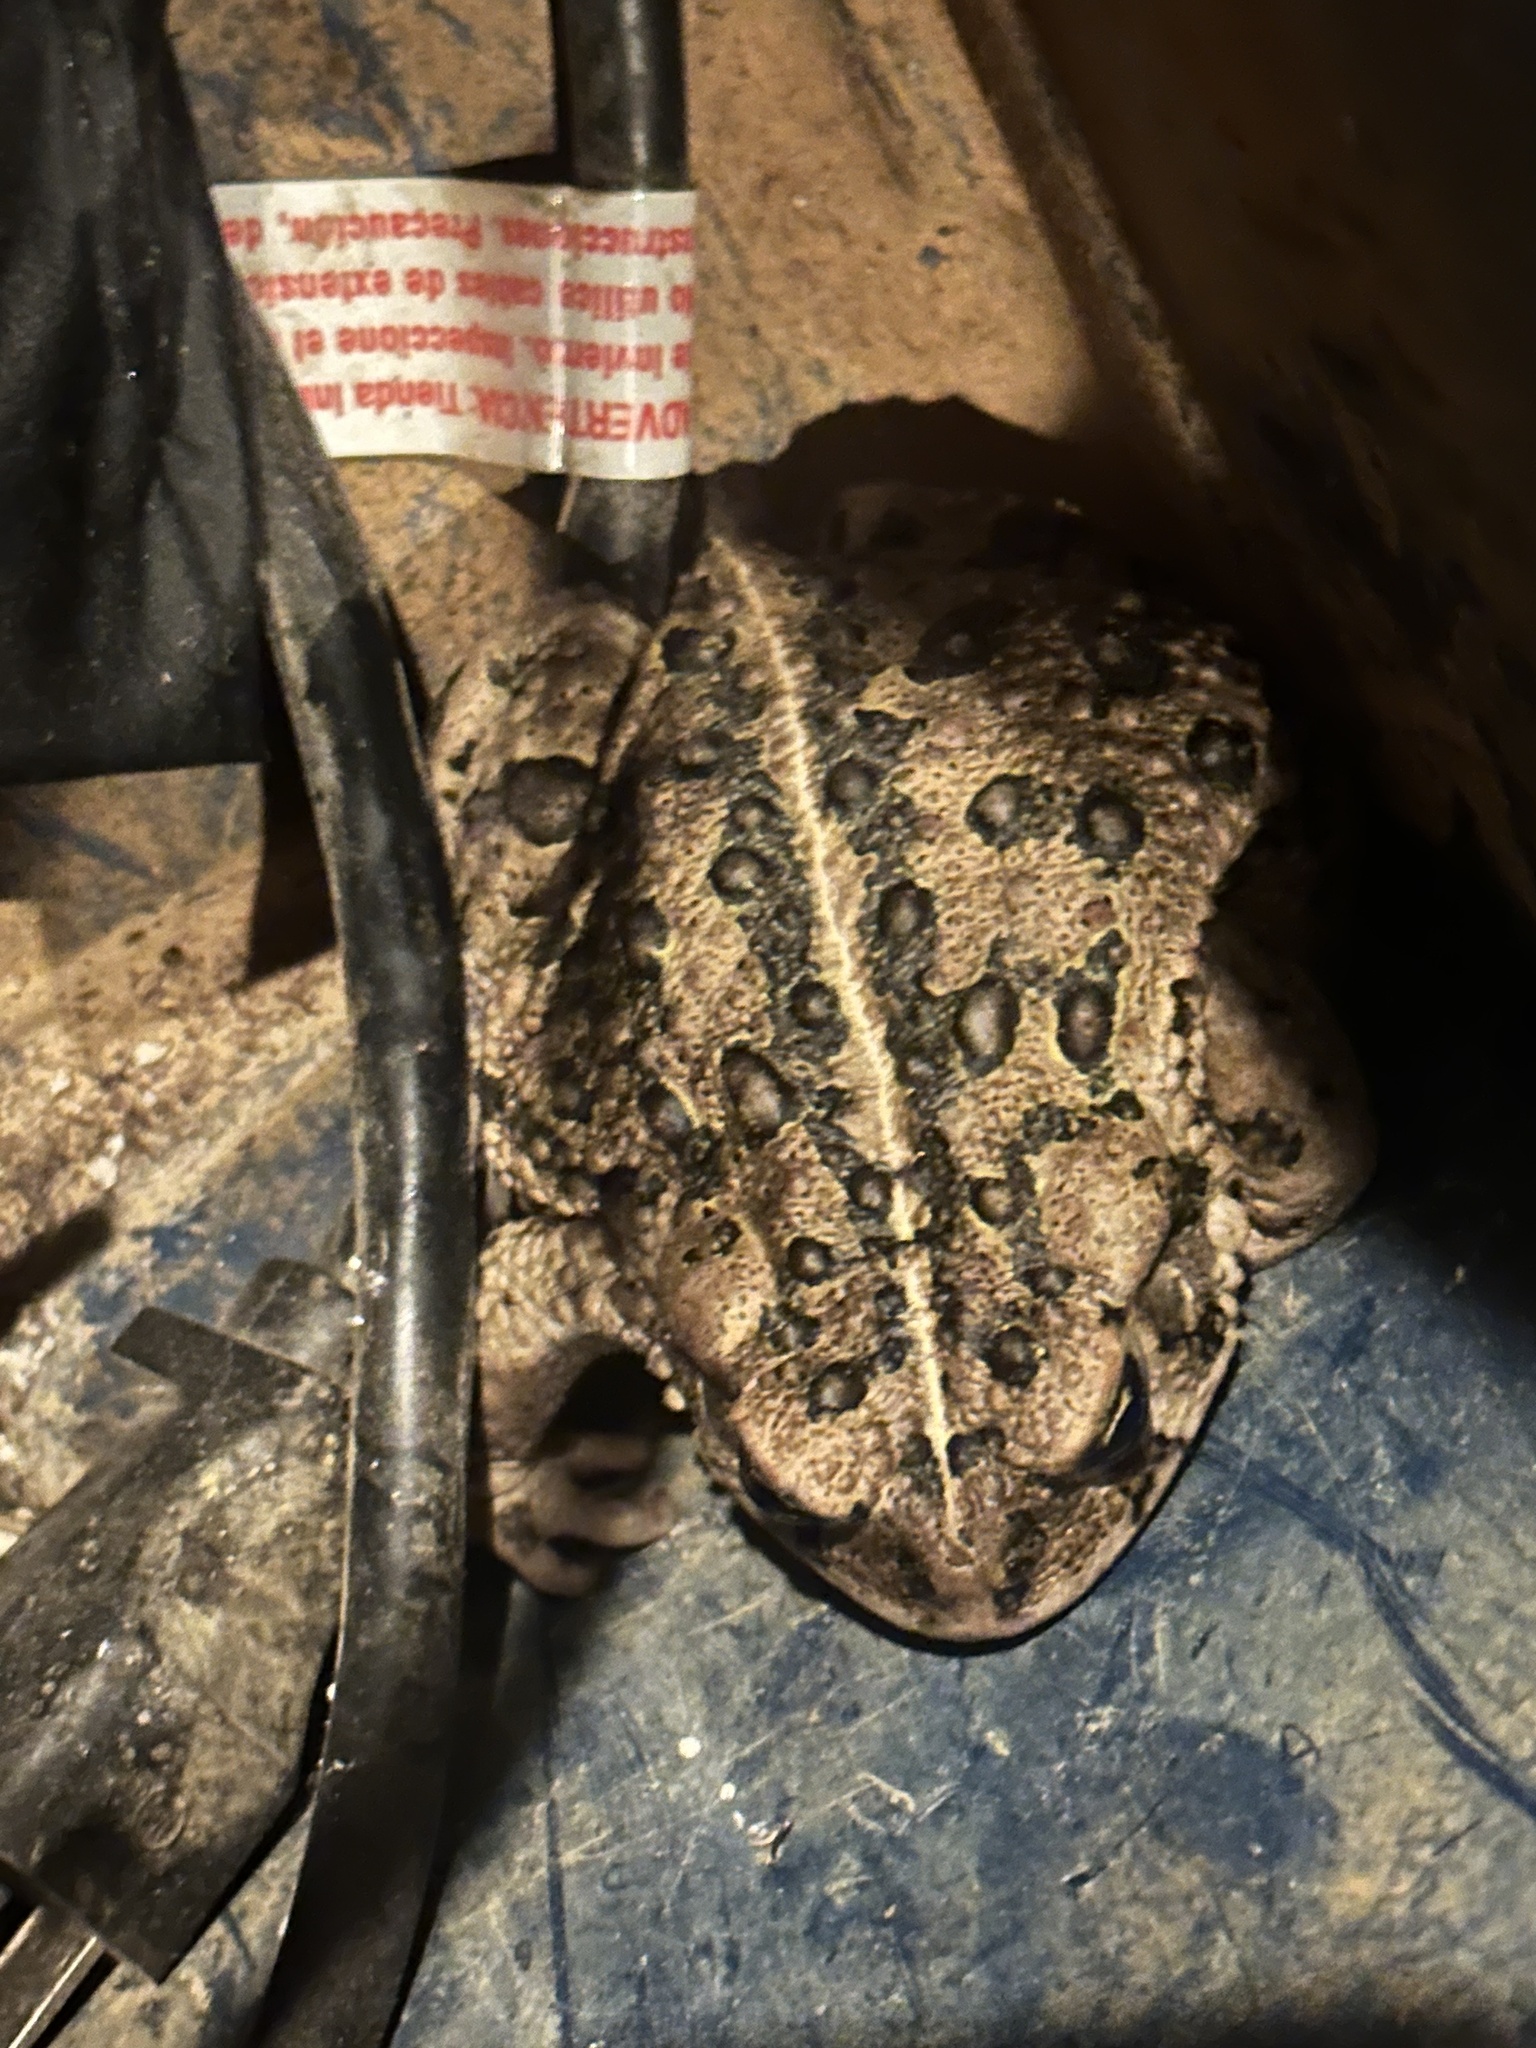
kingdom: Animalia
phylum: Chordata
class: Amphibia
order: Anura
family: Bufonidae
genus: Anaxyrus
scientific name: Anaxyrus boreas
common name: Western toad
